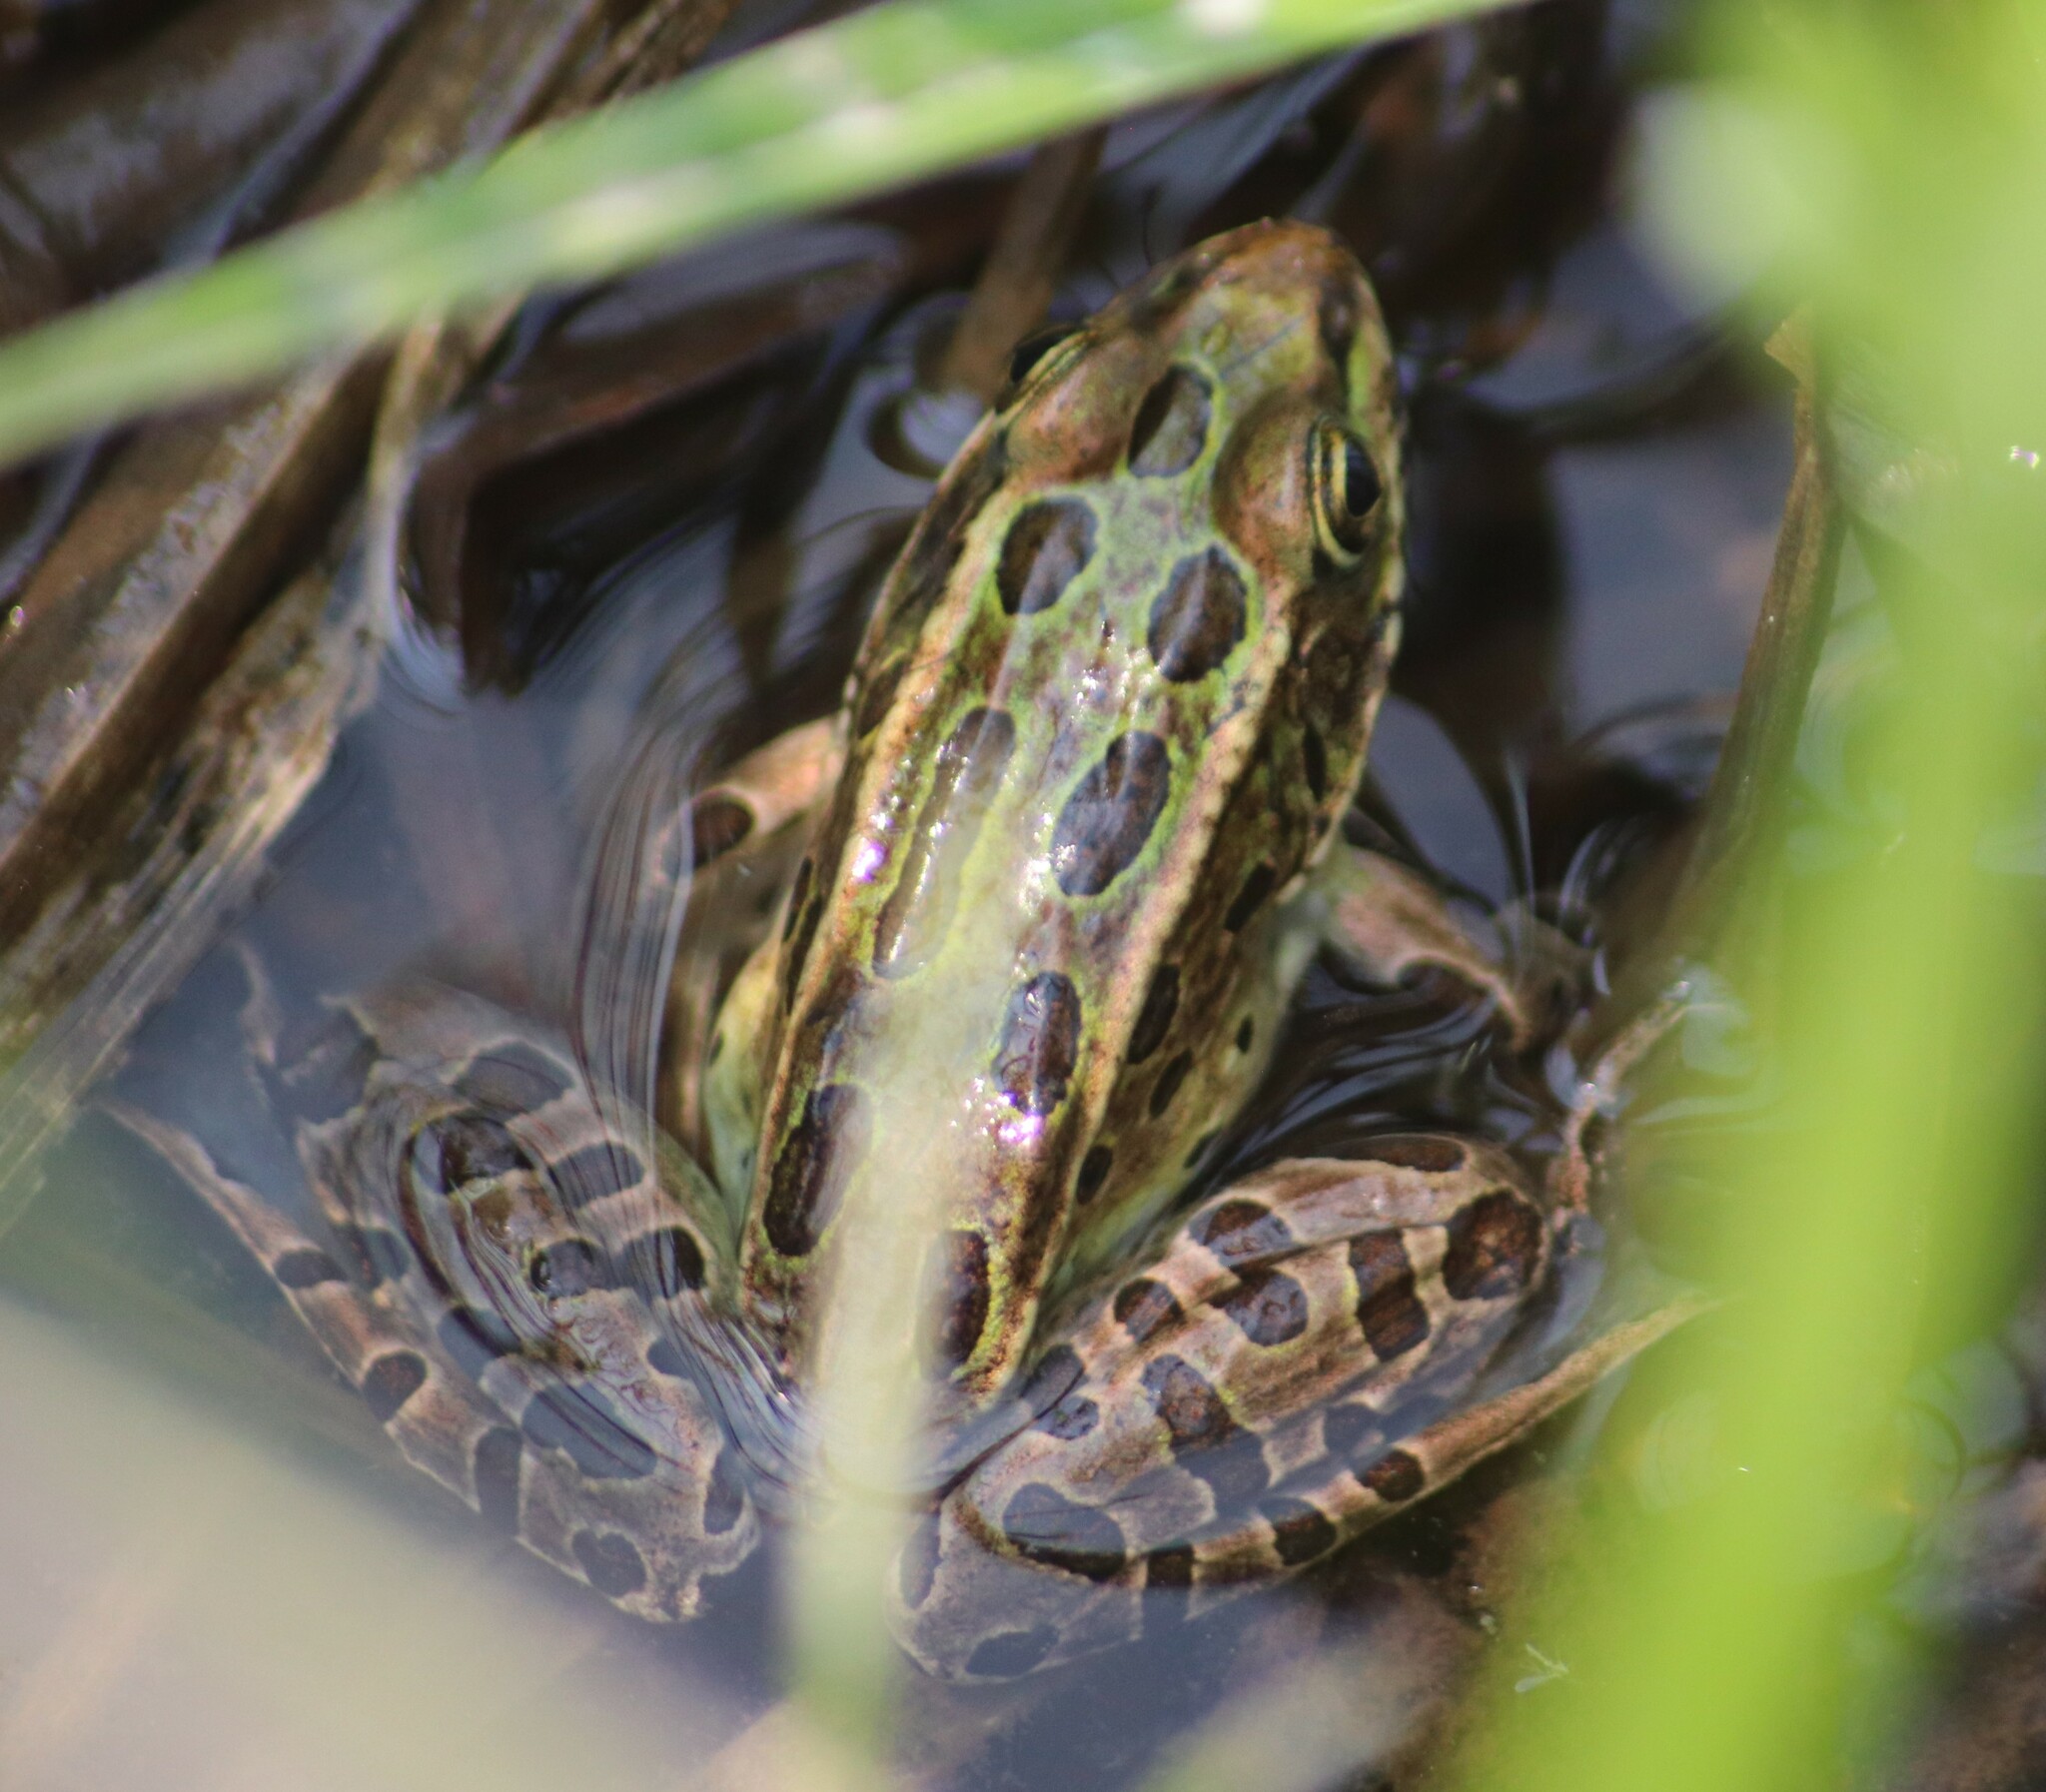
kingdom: Animalia
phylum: Chordata
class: Amphibia
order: Anura
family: Ranidae
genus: Lithobates
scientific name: Lithobates pipiens
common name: Northern leopard frog
